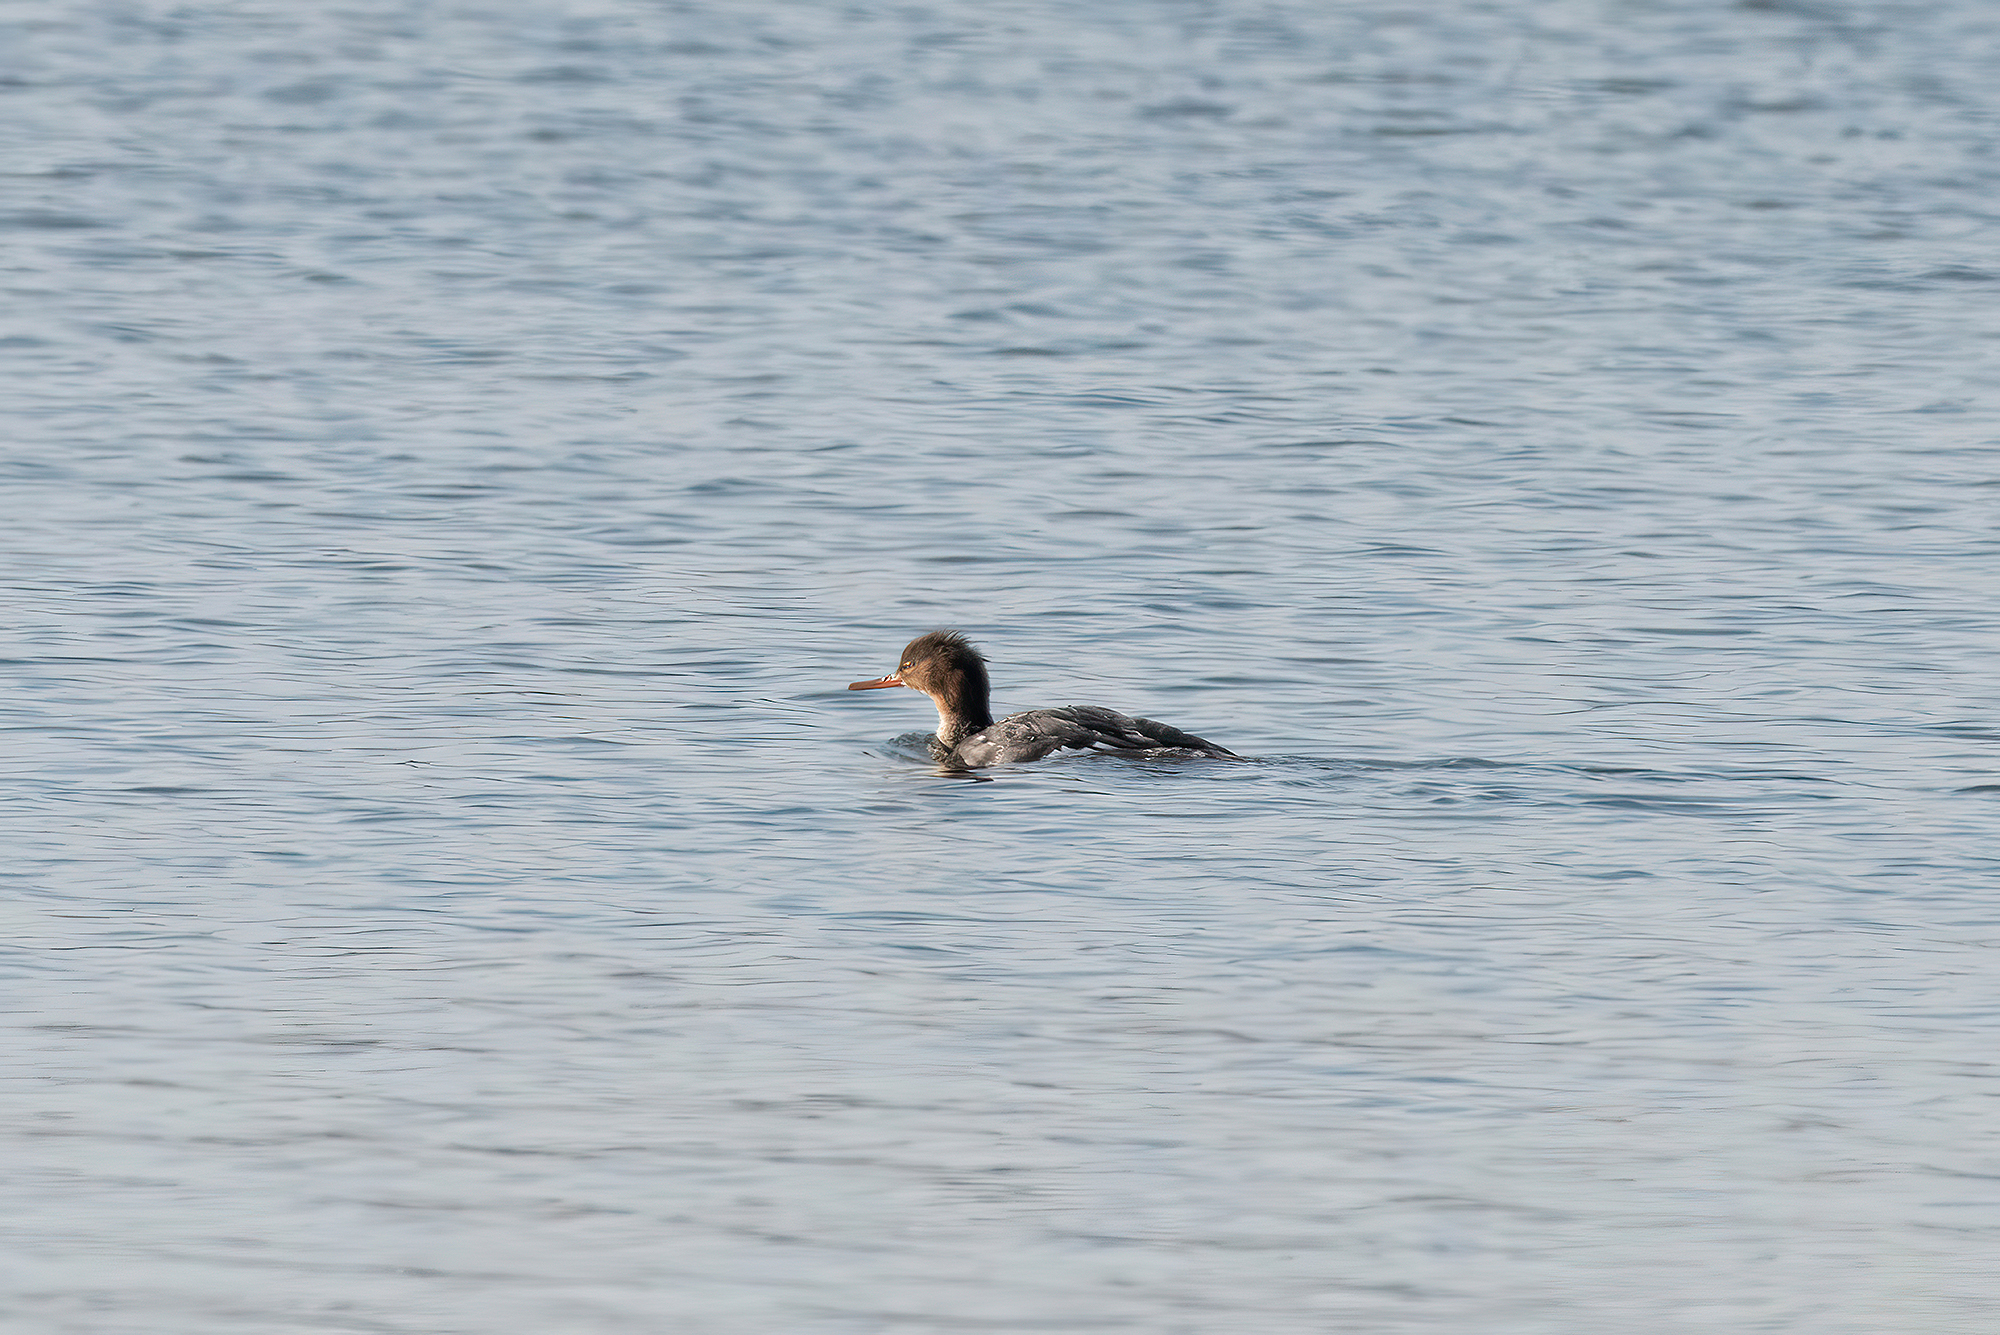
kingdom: Animalia
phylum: Chordata
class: Aves
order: Anseriformes
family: Anatidae
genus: Mergus
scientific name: Mergus serrator
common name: Red-breasted merganser
